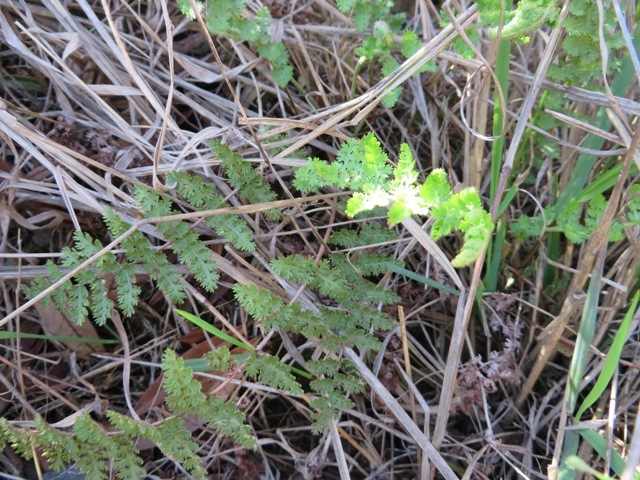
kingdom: Plantae
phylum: Tracheophyta
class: Polypodiopsida
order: Schizaeales
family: Anemiaceae
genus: Anemia
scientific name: Anemia caffrorum
